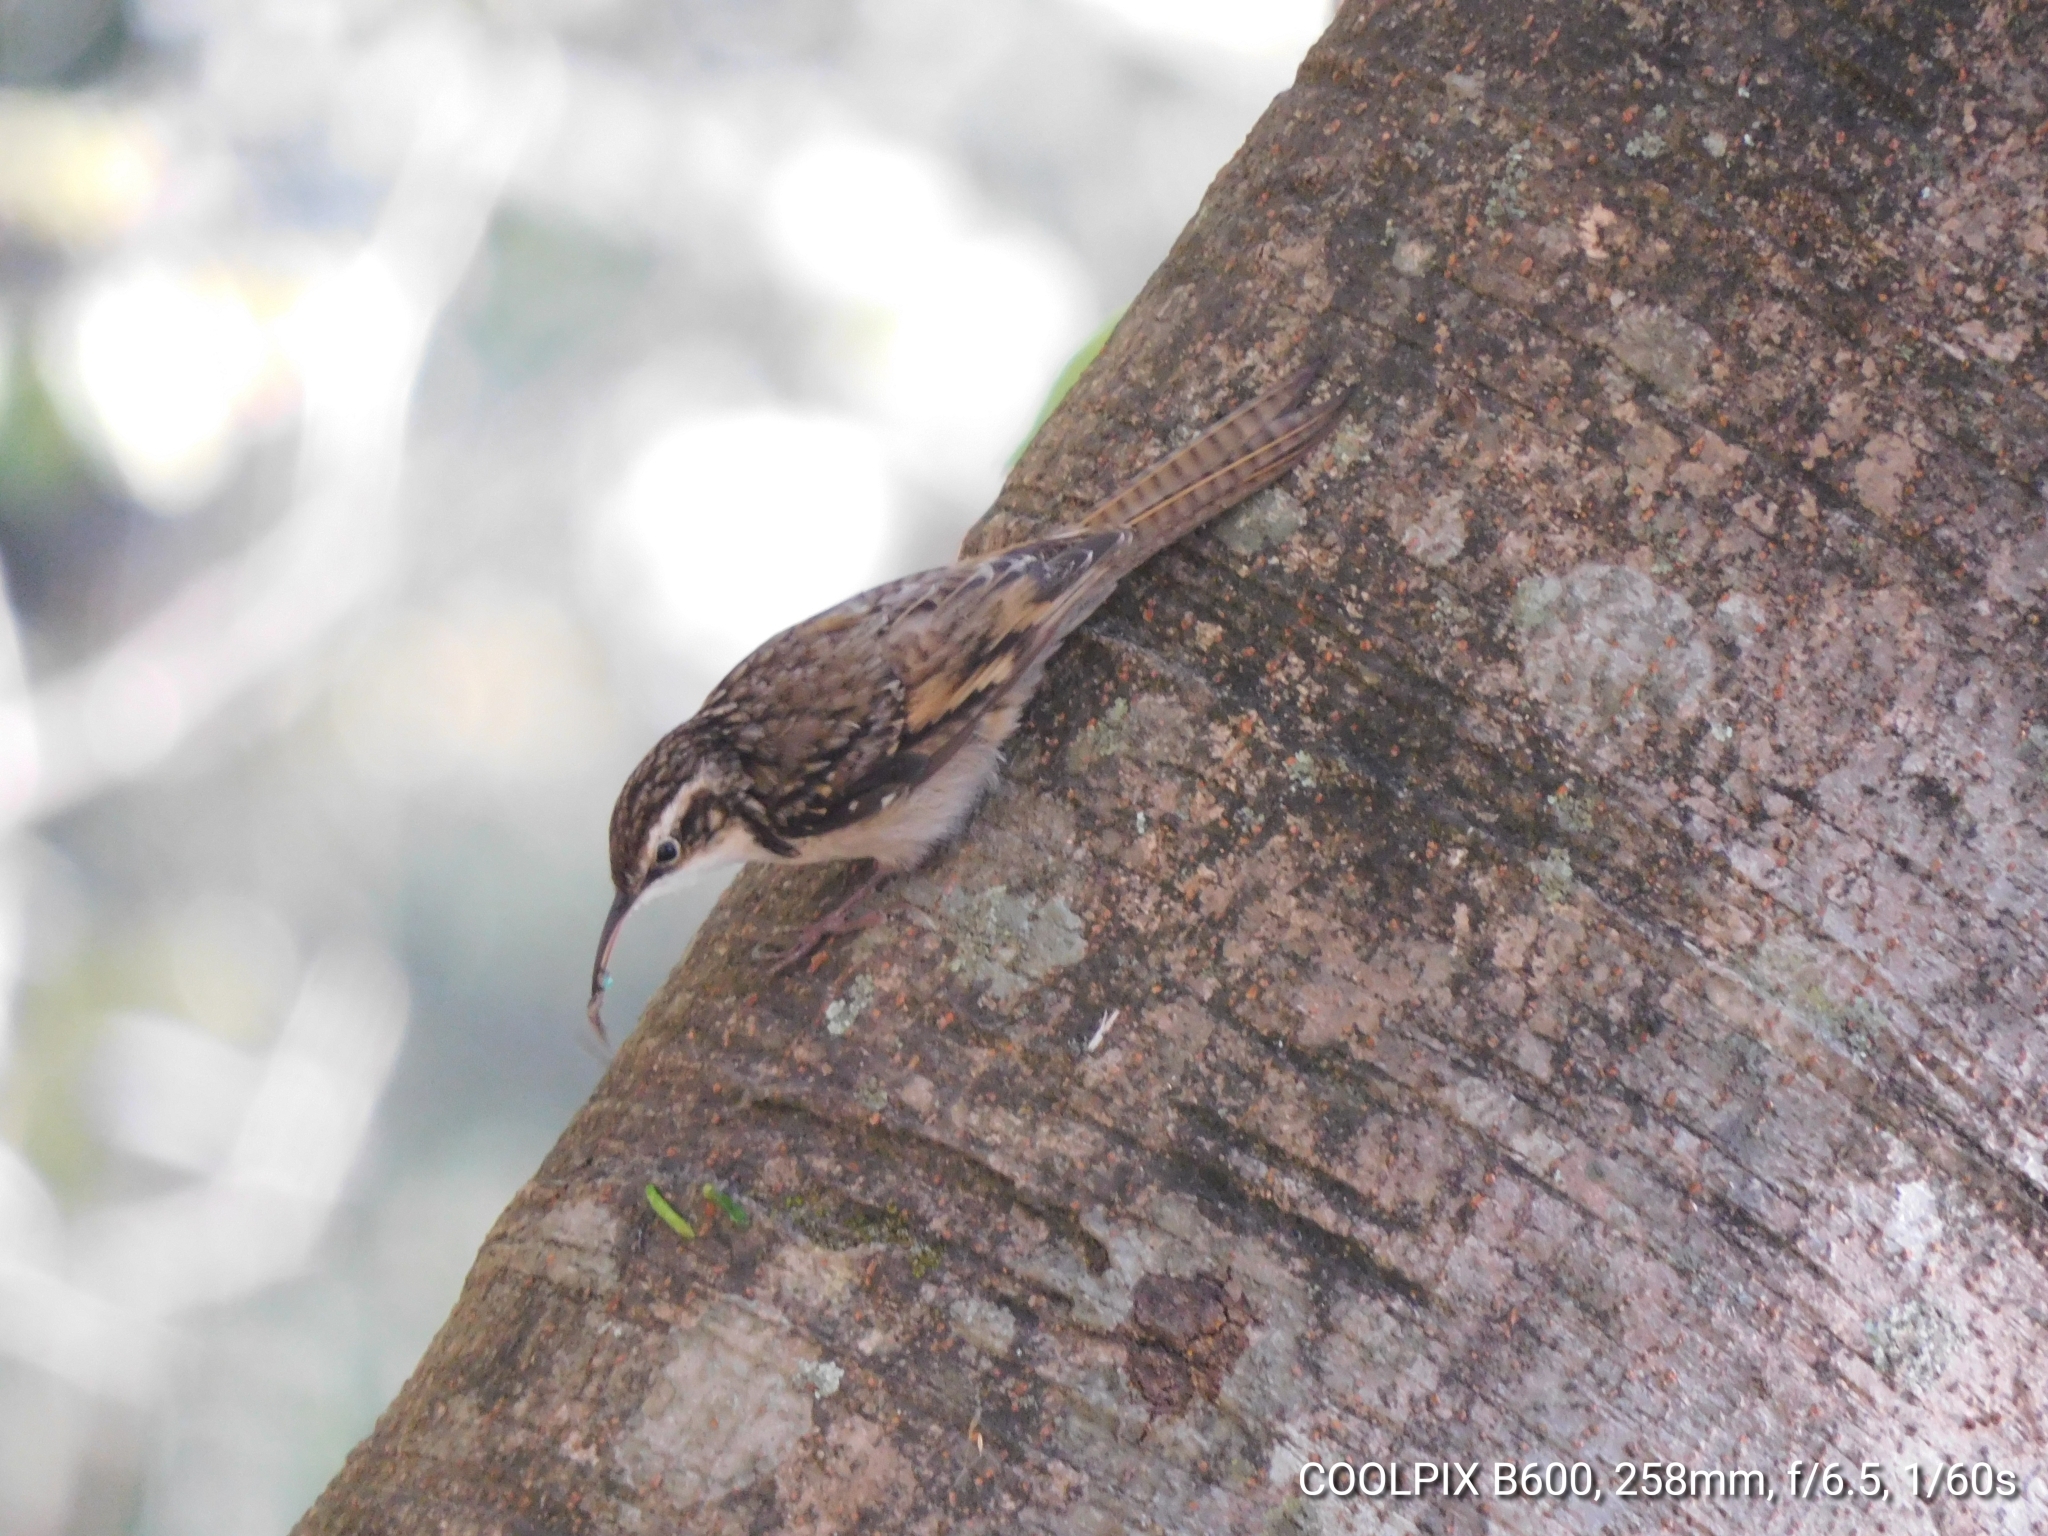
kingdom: Animalia
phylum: Chordata
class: Aves
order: Passeriformes
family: Certhiidae
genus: Certhia
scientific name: Certhia himalayana
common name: Bar-tailed treecreeper
